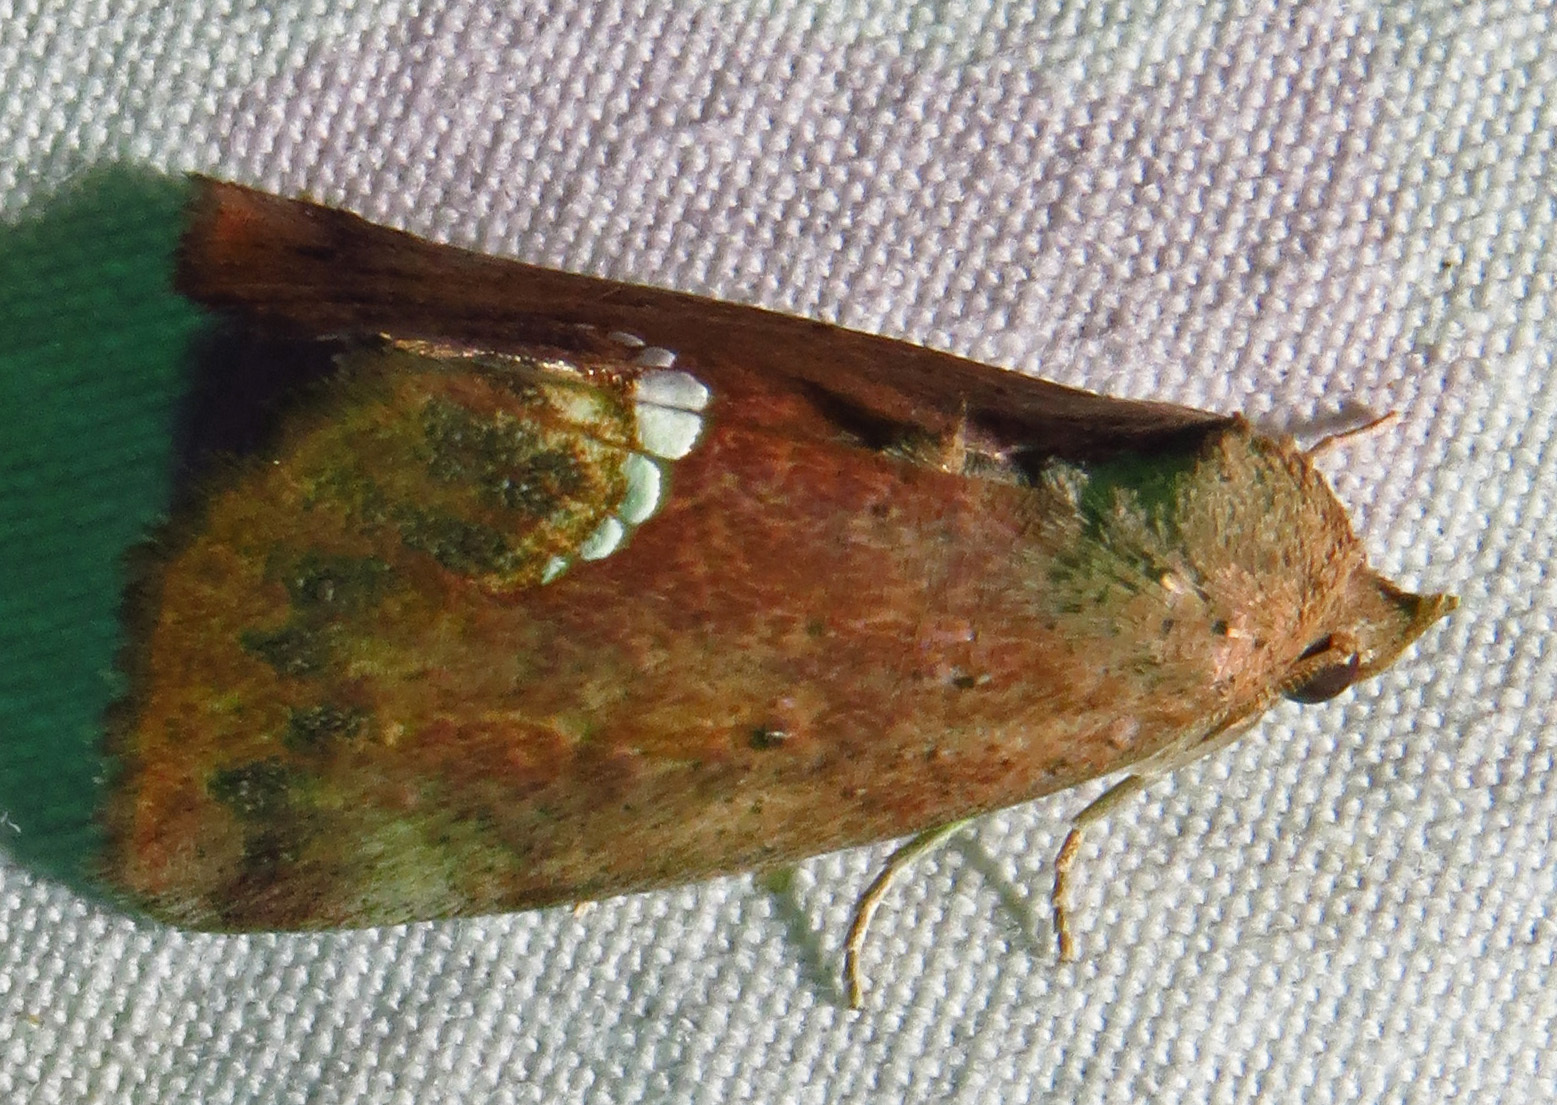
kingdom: Animalia
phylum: Arthropoda
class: Insecta
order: Lepidoptera
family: Erebidae
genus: Hypsoropha
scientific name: Hypsoropha hormos
